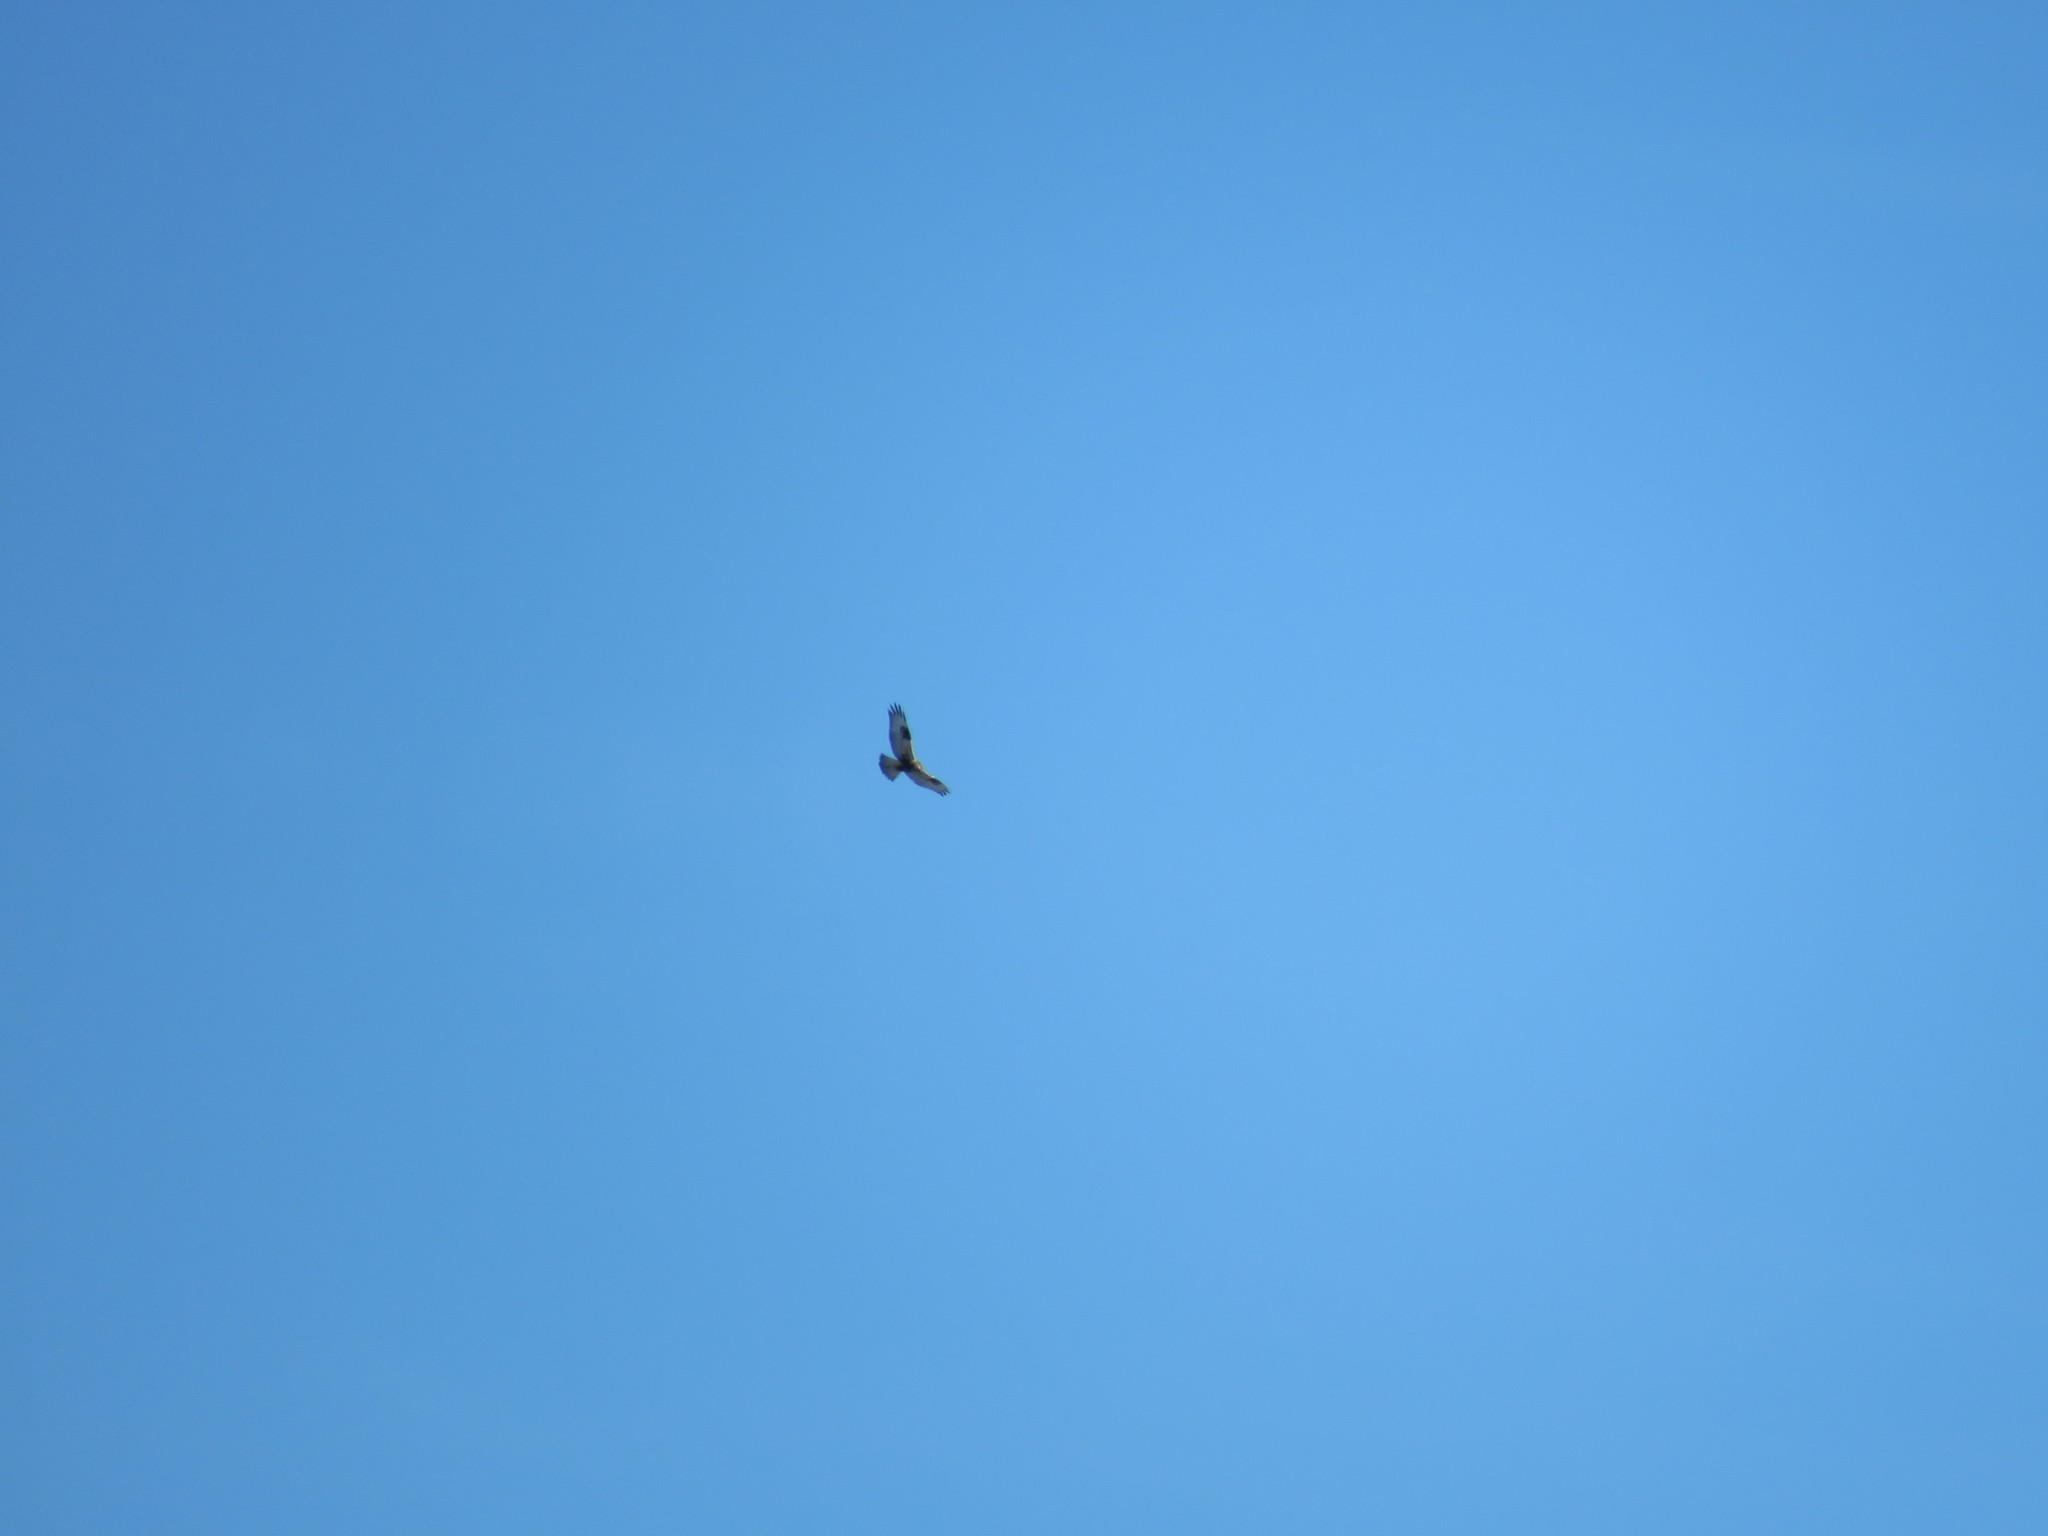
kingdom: Animalia
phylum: Chordata
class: Aves
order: Accipitriformes
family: Accipitridae
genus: Buteo
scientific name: Buteo lagopus
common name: Rough-legged buzzard
